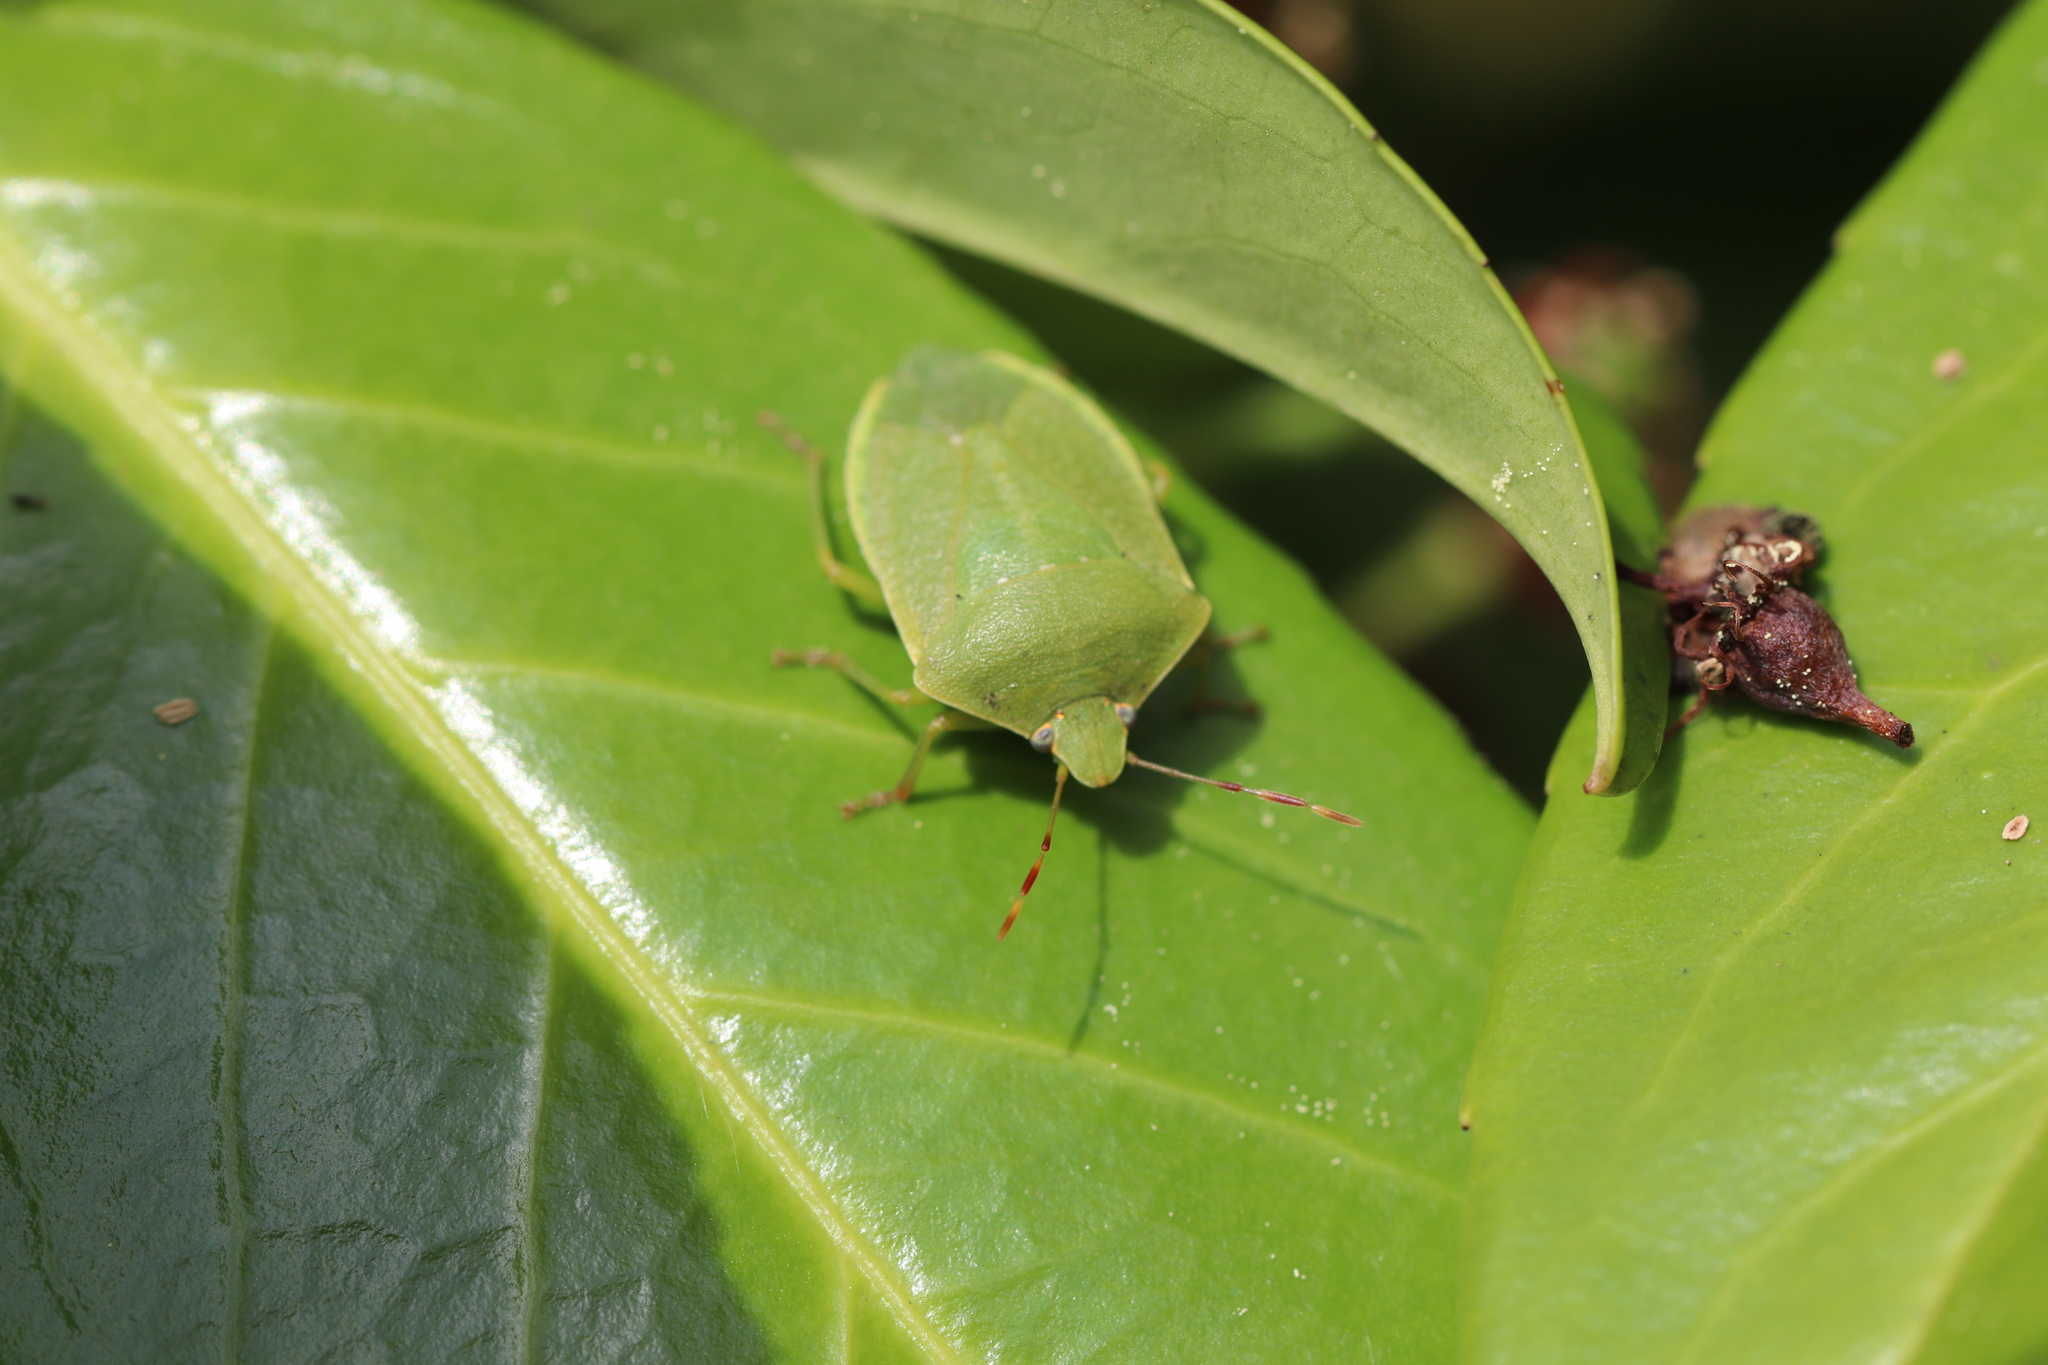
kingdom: Animalia
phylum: Arthropoda
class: Insecta
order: Hemiptera
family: Pentatomidae
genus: Nezara
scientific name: Nezara viridula
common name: Southern green stink bug
